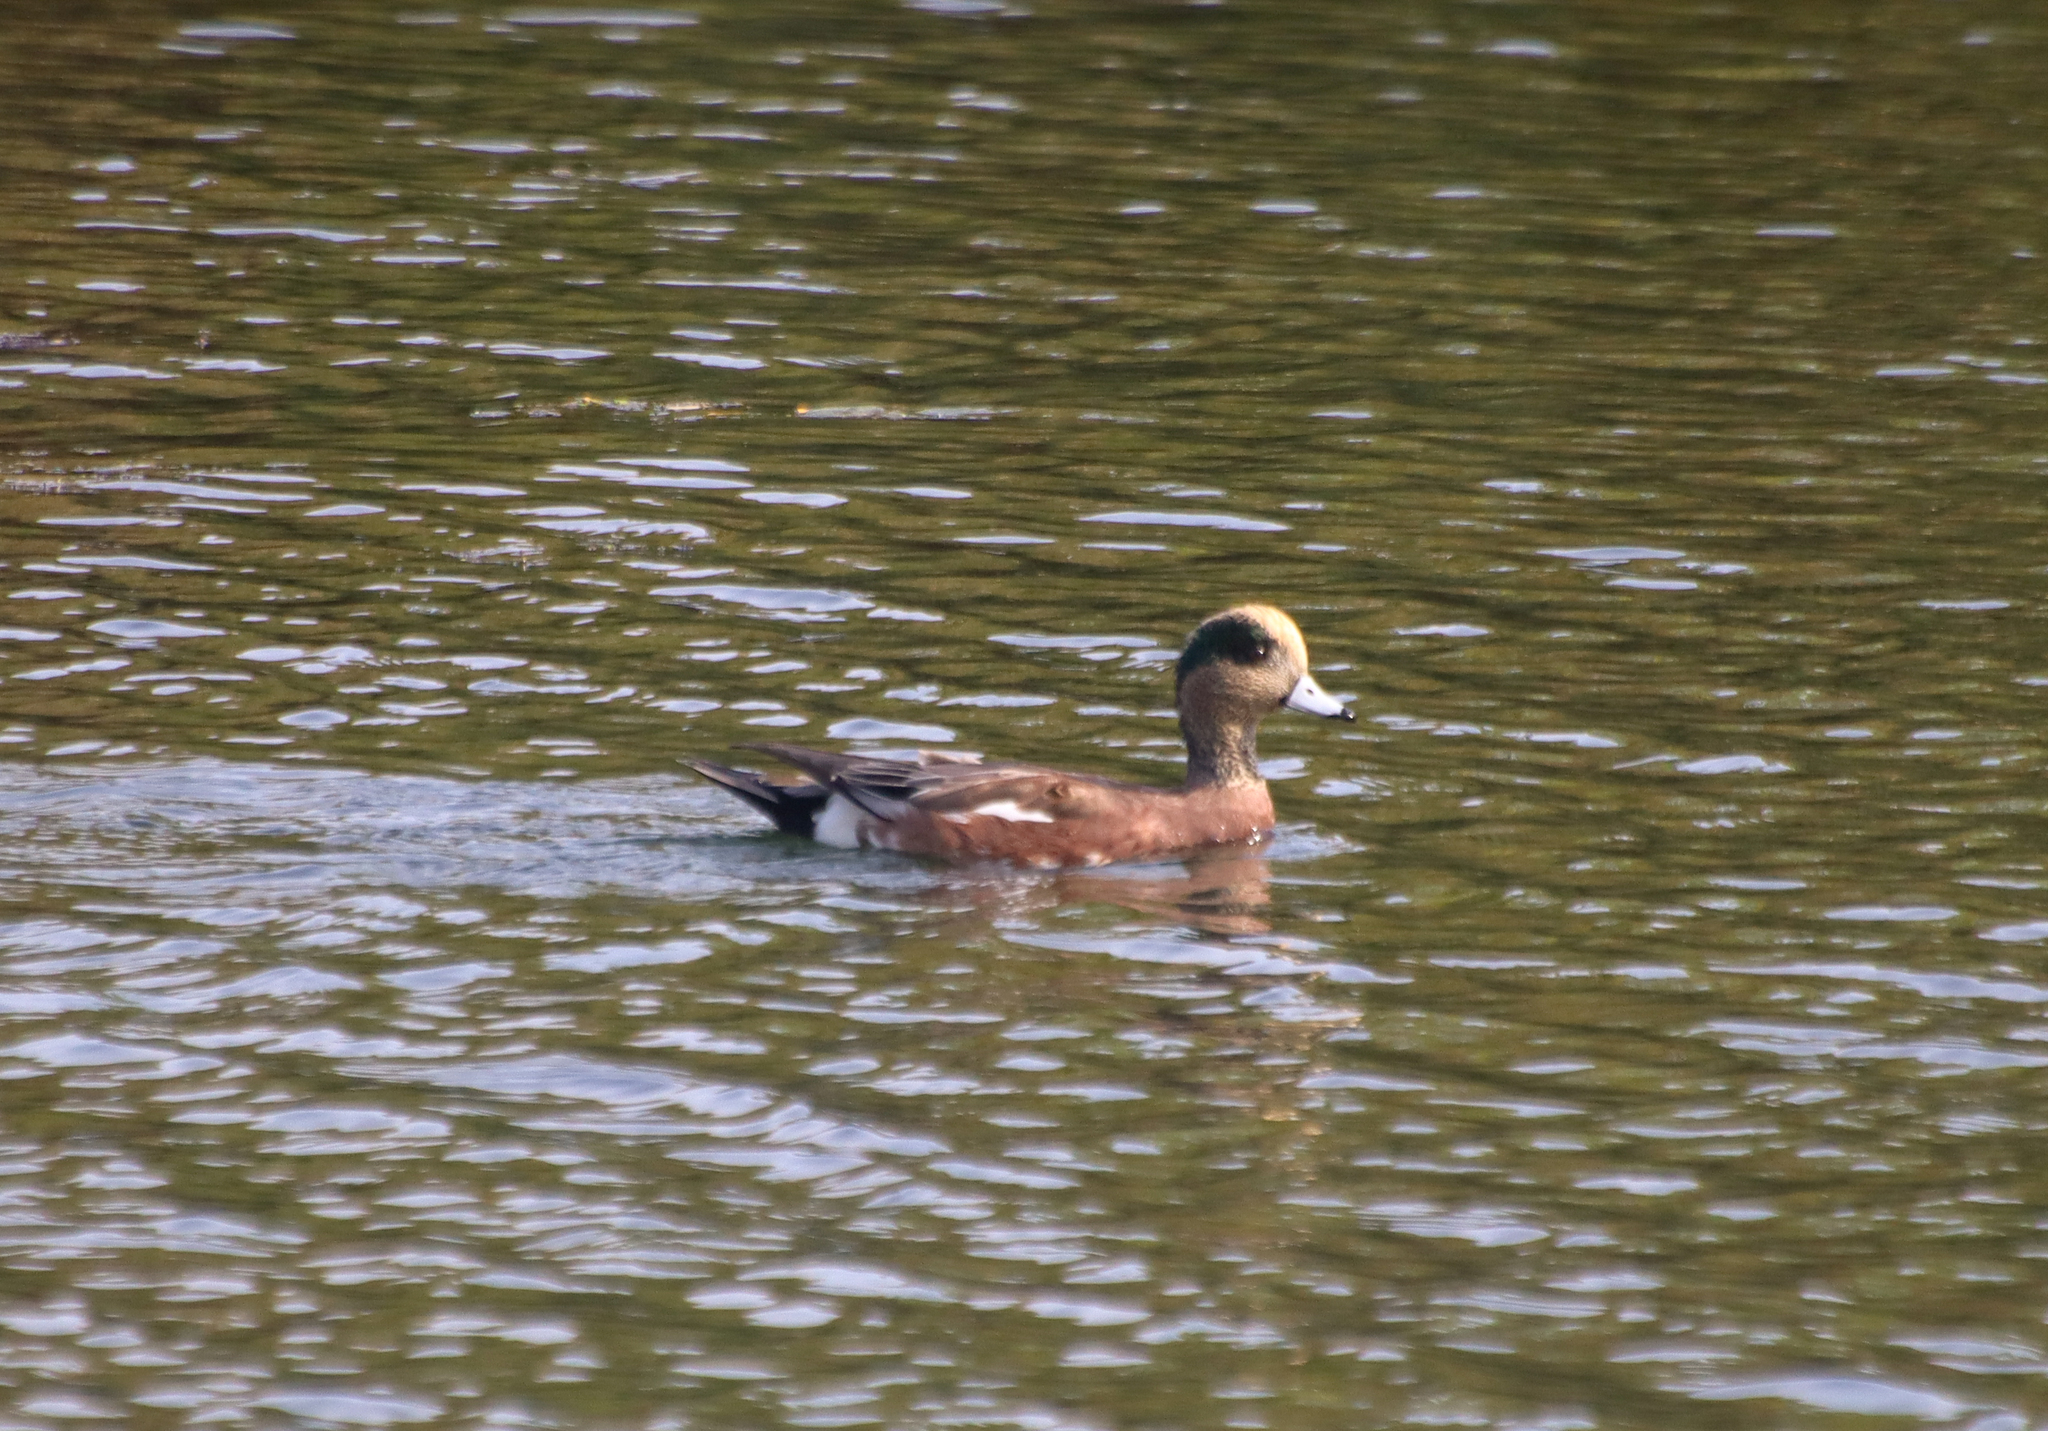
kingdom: Animalia
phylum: Chordata
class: Aves
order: Anseriformes
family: Anatidae
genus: Mareca
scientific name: Mareca americana
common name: American wigeon
